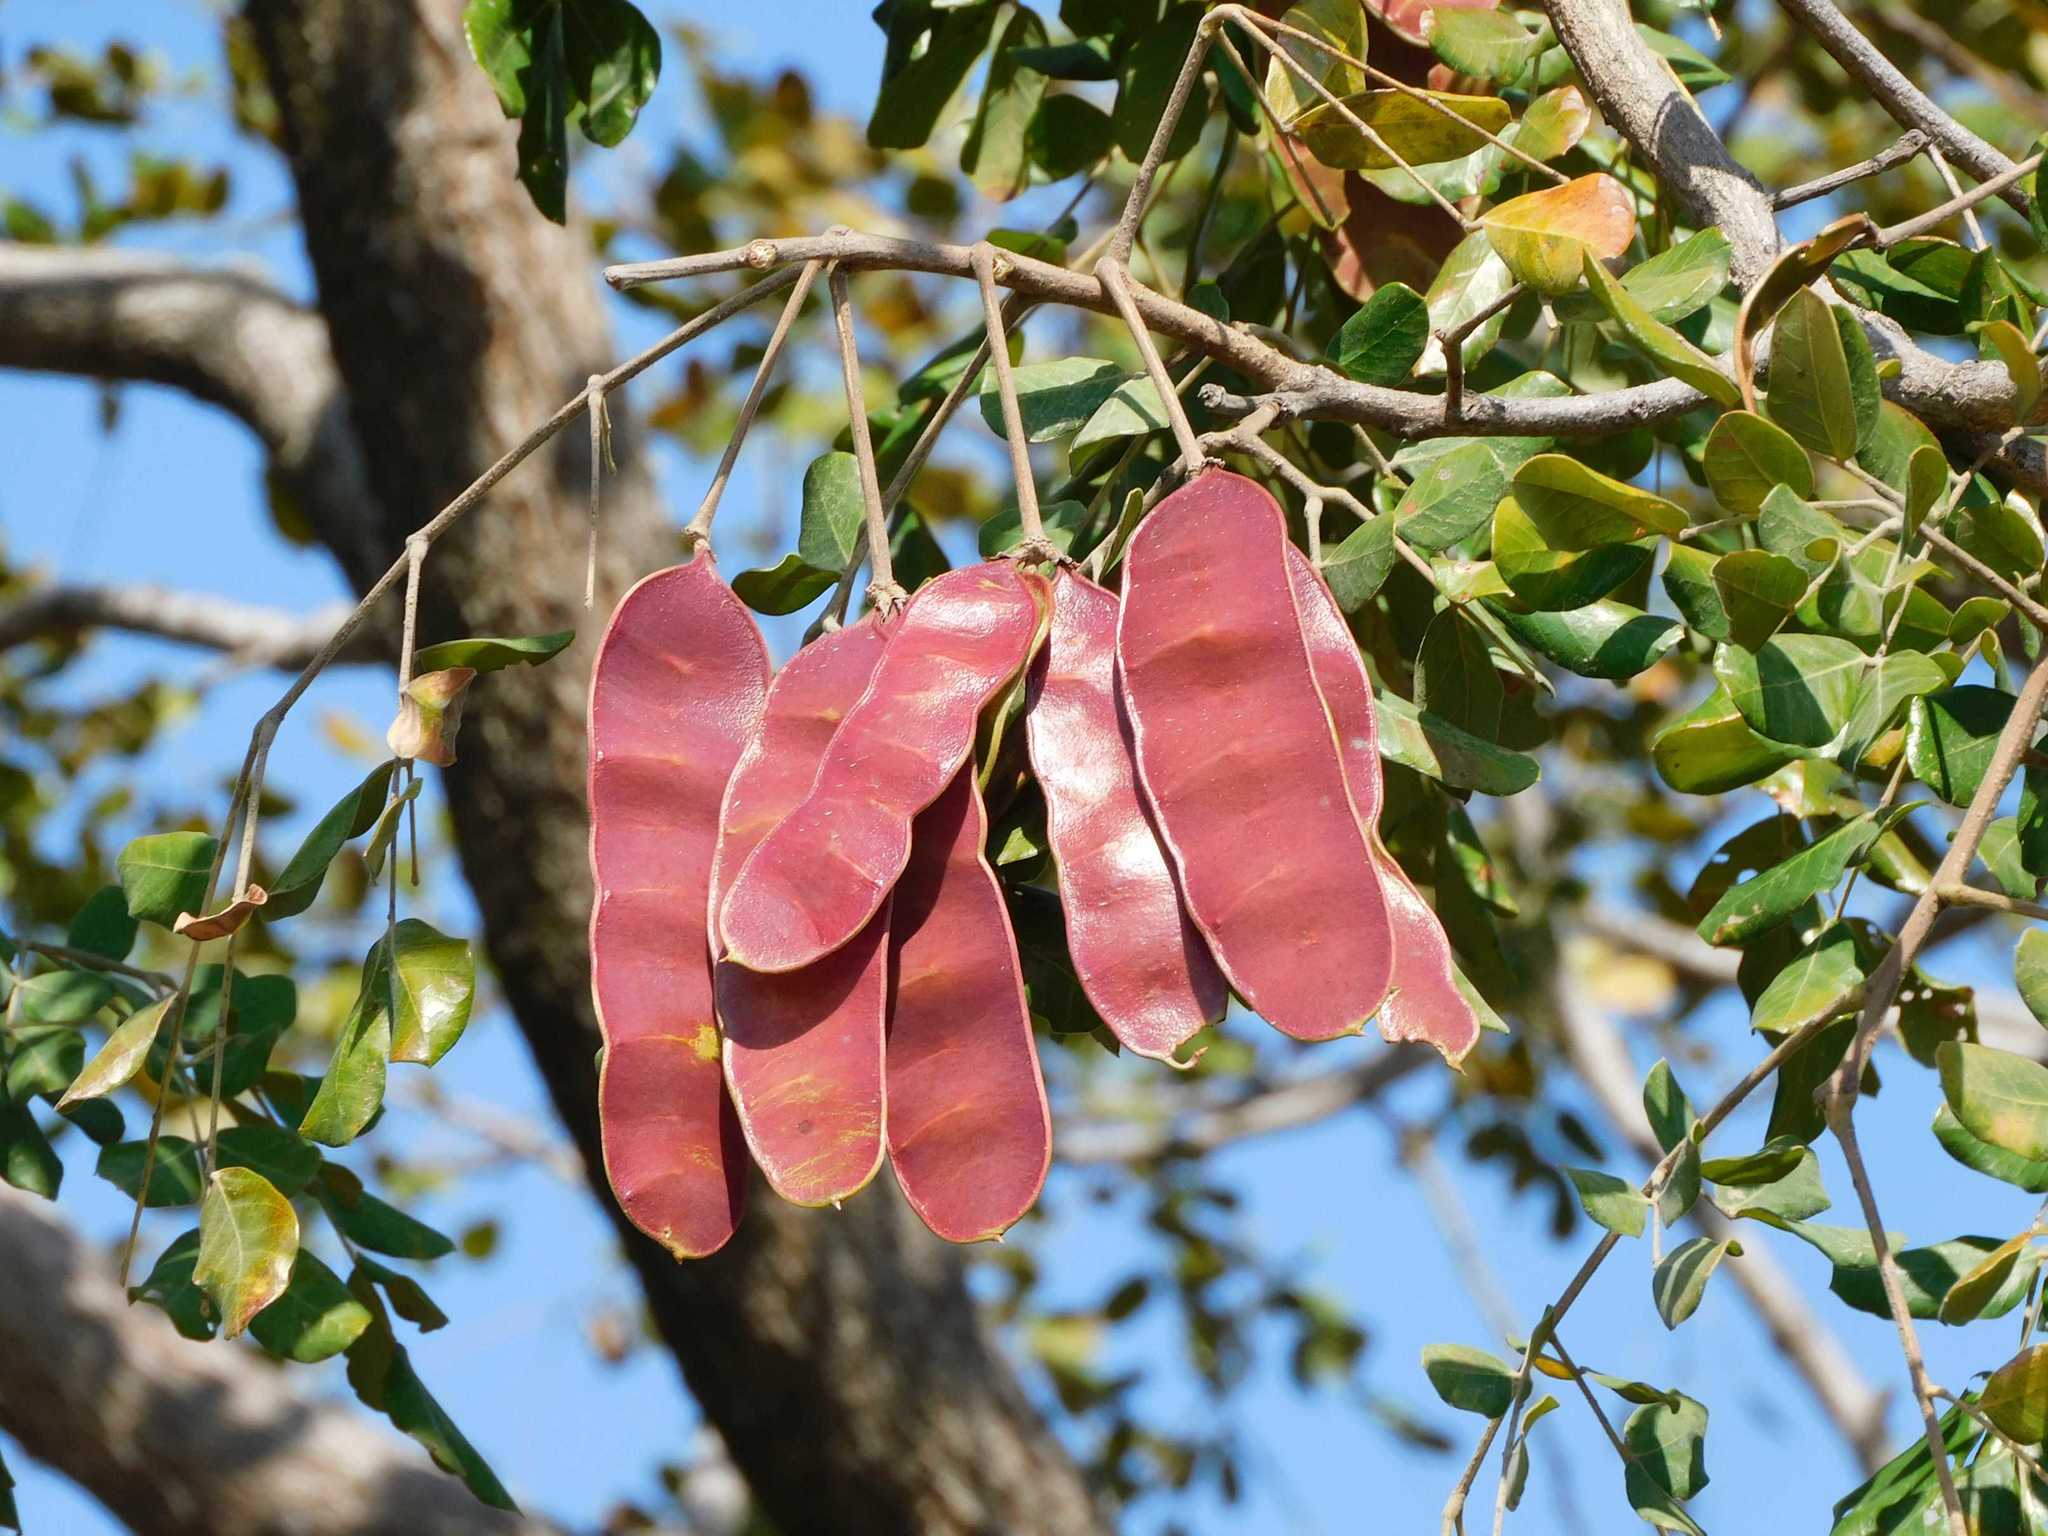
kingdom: Plantae
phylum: Tracheophyta
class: Magnoliopsida
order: Fabales
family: Fabaceae
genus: Albizia
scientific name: Albizia versicolor
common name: Poisonpod
